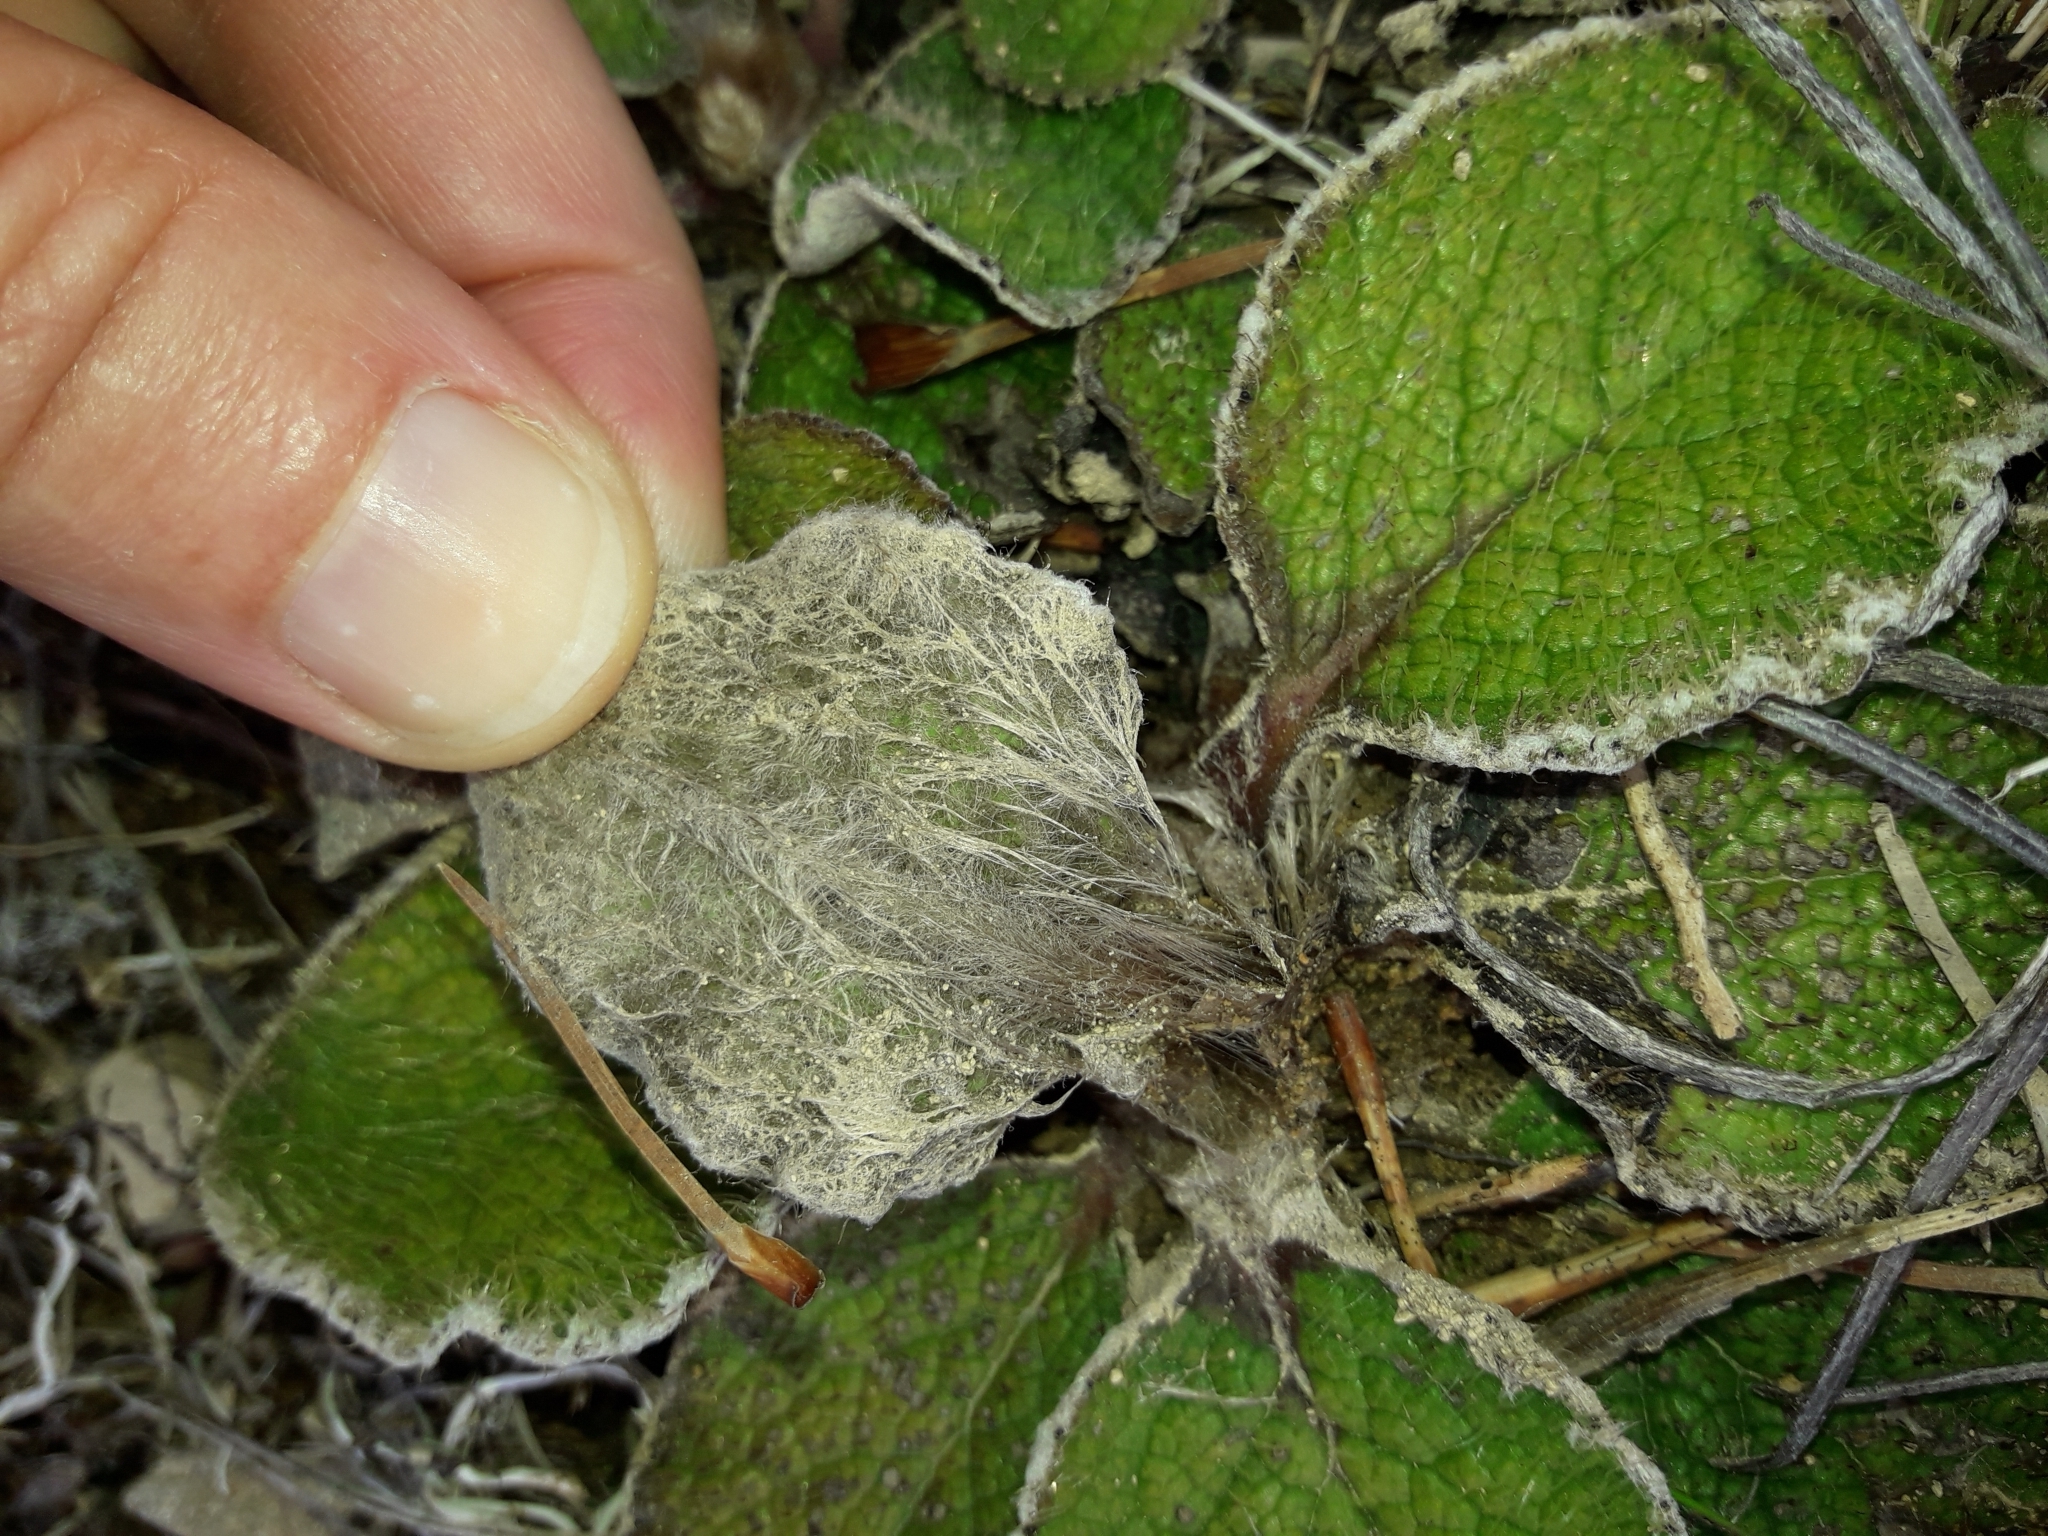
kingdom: Plantae
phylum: Tracheophyta
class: Magnoliopsida
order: Asterales
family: Asteraceae
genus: Brachyglottis
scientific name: Brachyglottis lagopus
